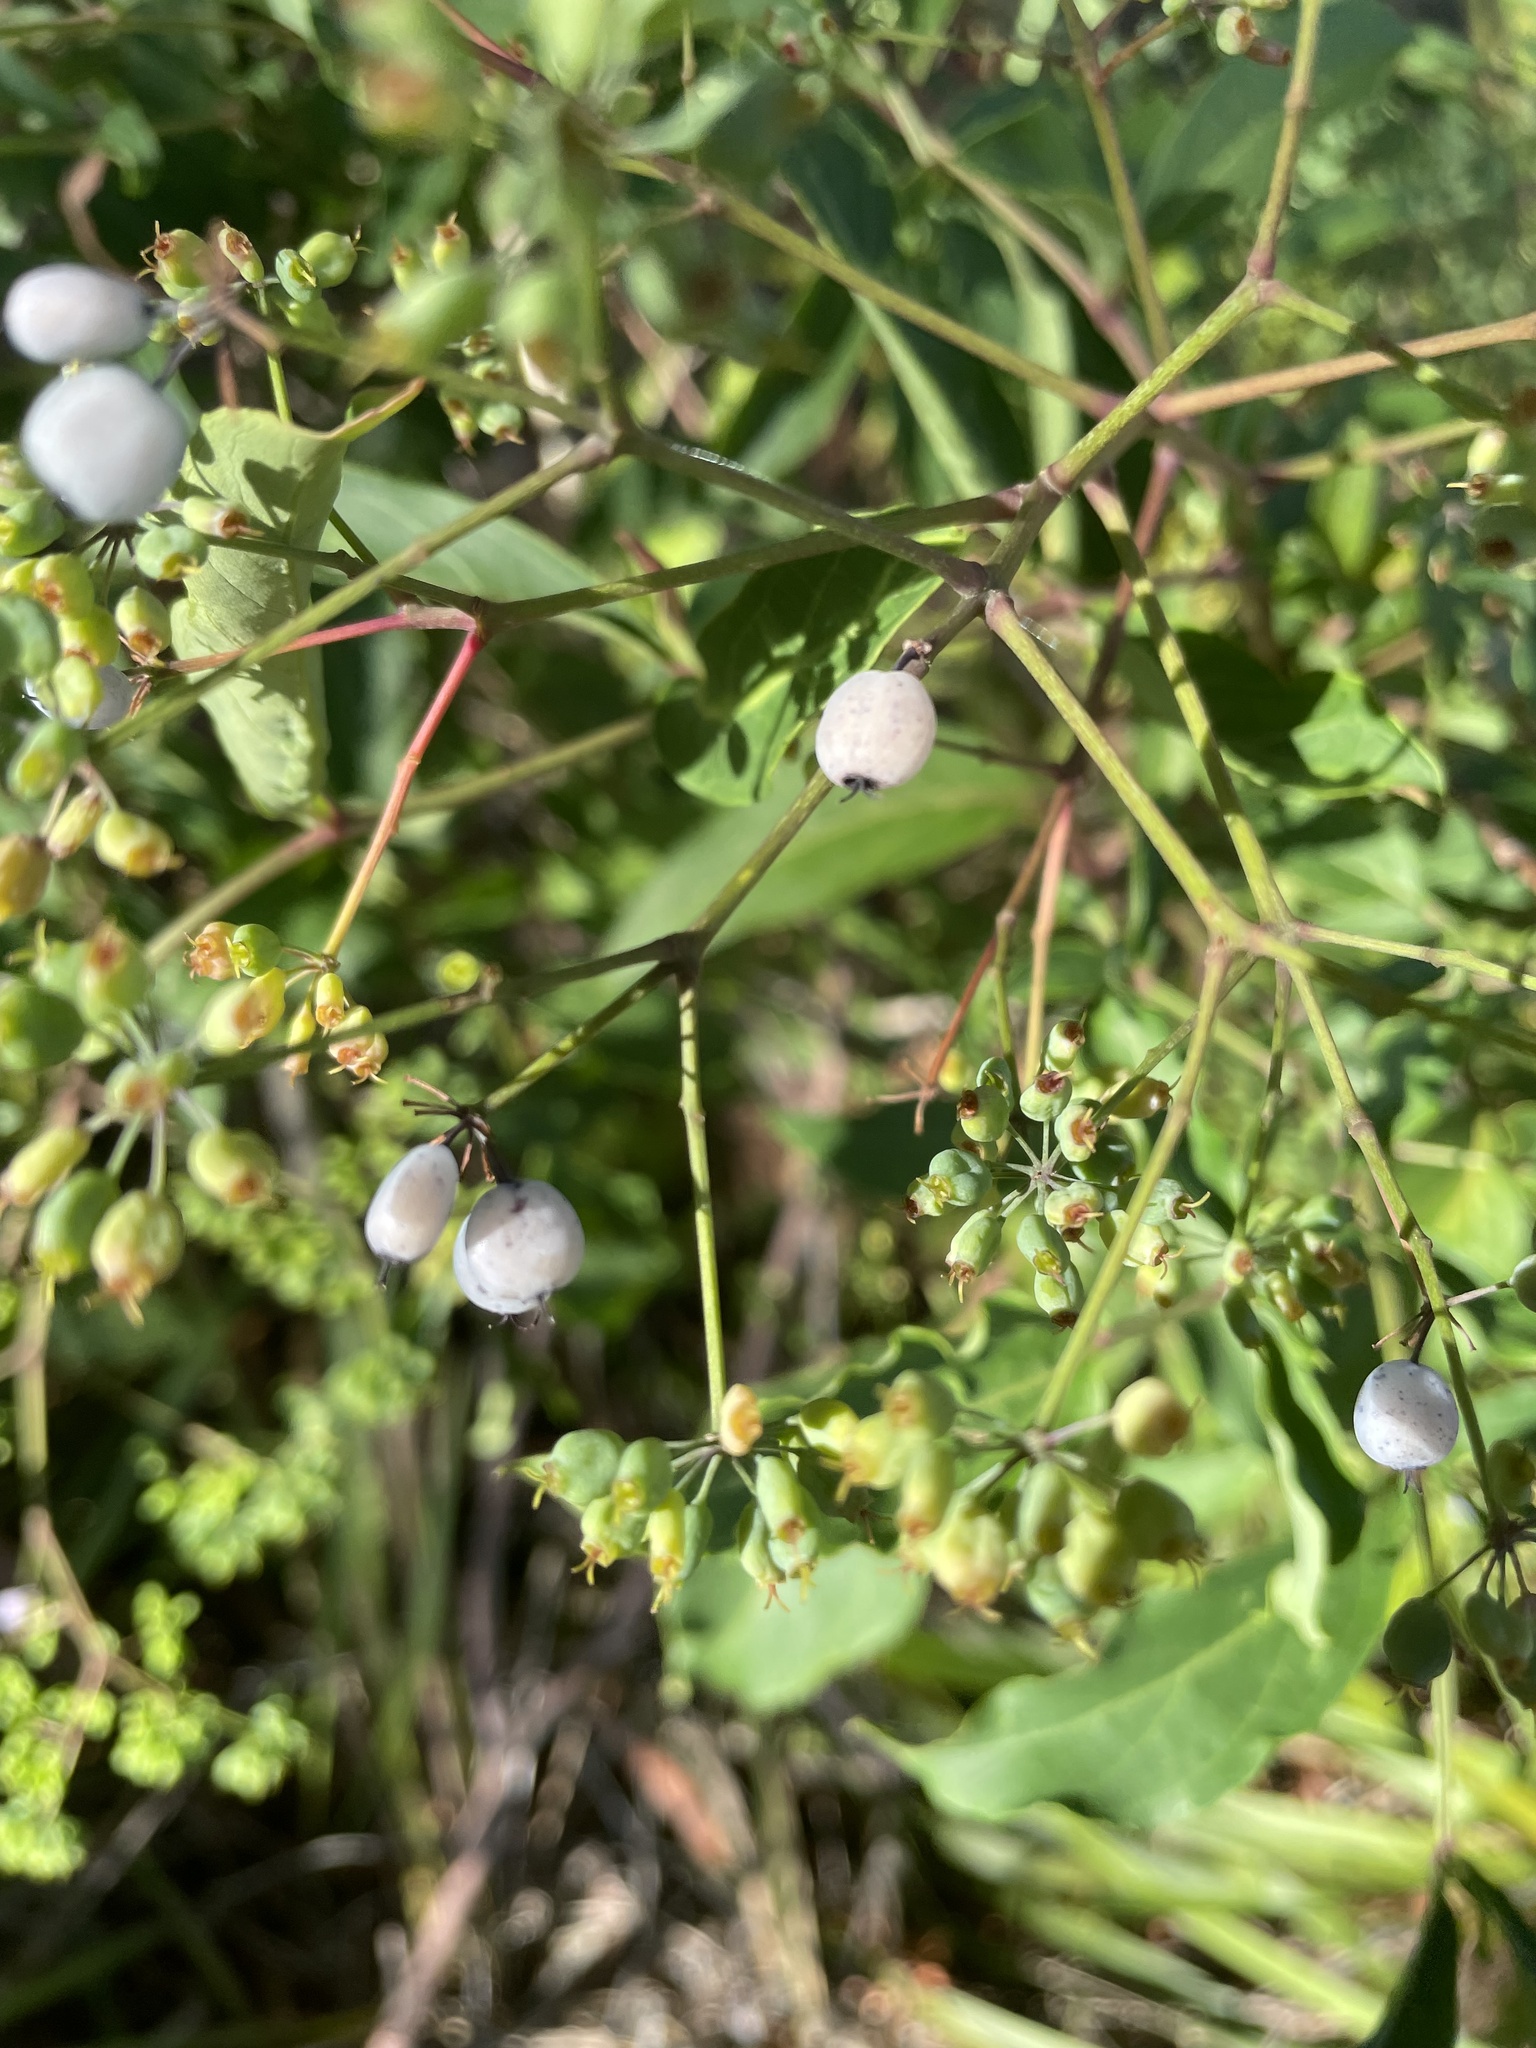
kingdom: Plantae
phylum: Tracheophyta
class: Magnoliopsida
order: Apiales
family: Araliaceae
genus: Polyscias
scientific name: Polyscias sambucifolia
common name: Elderberry-ash
